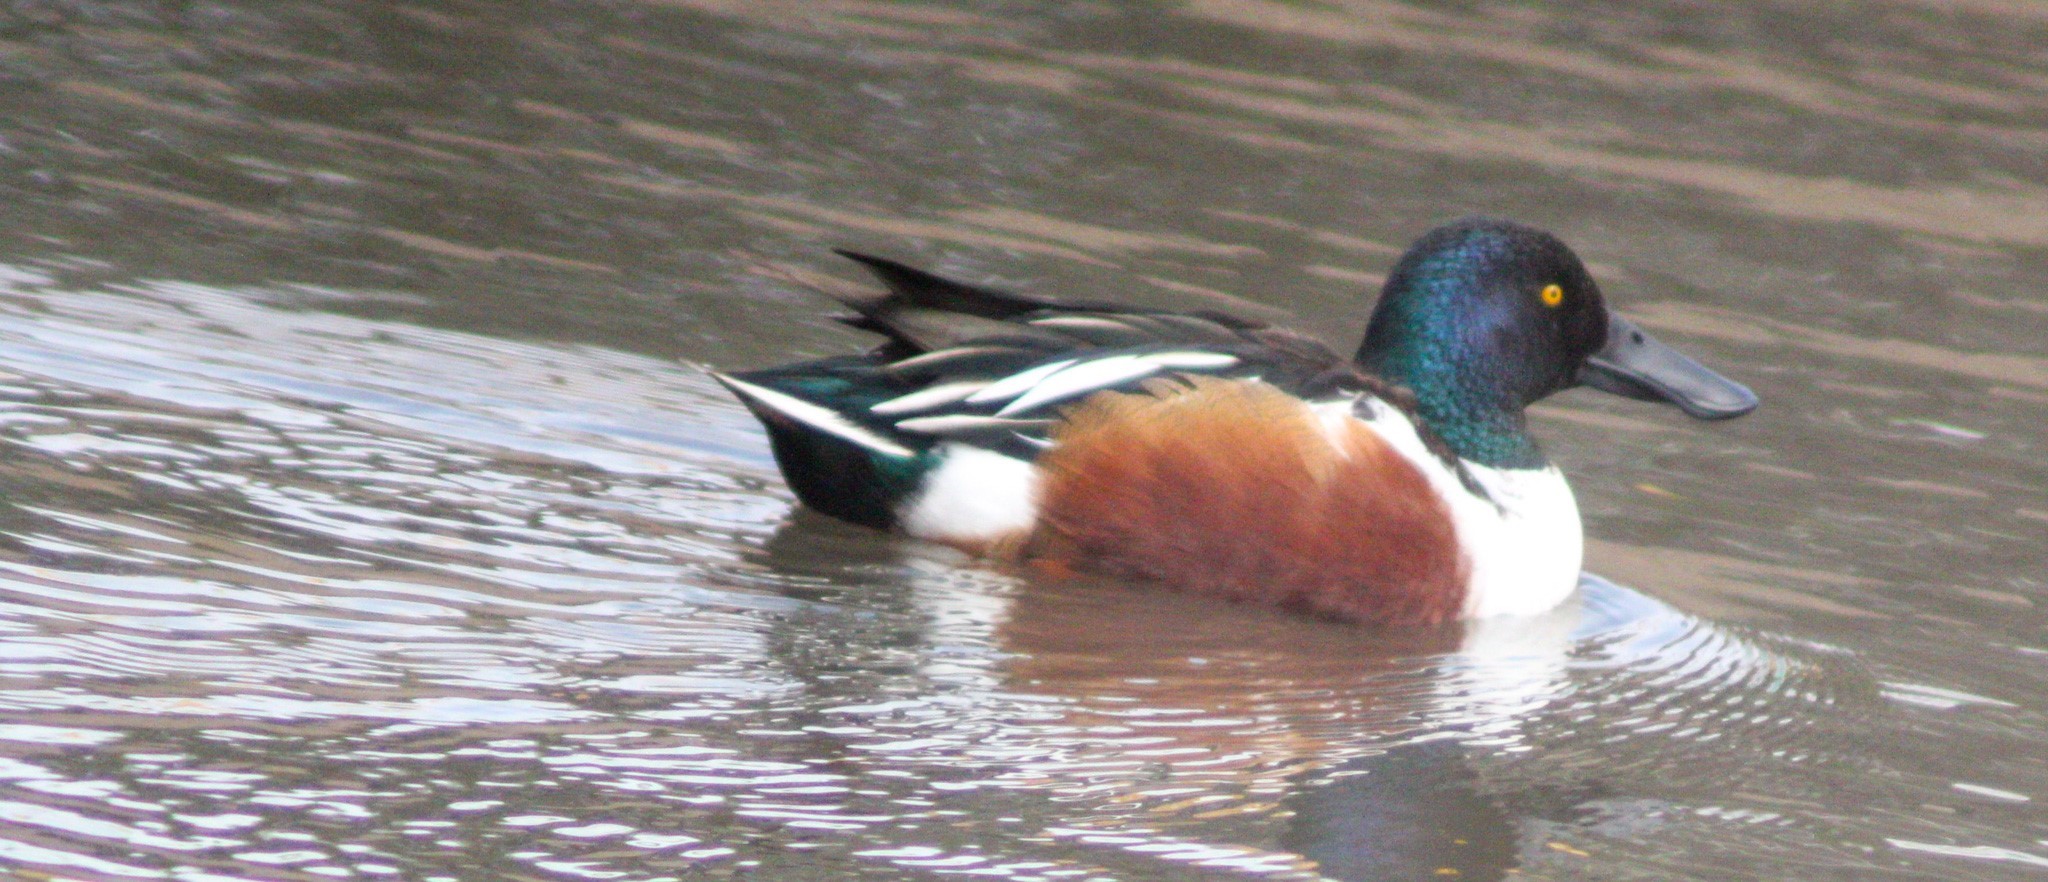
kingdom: Animalia
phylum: Chordata
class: Aves
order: Anseriformes
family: Anatidae
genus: Spatula
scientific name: Spatula clypeata
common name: Northern shoveler
